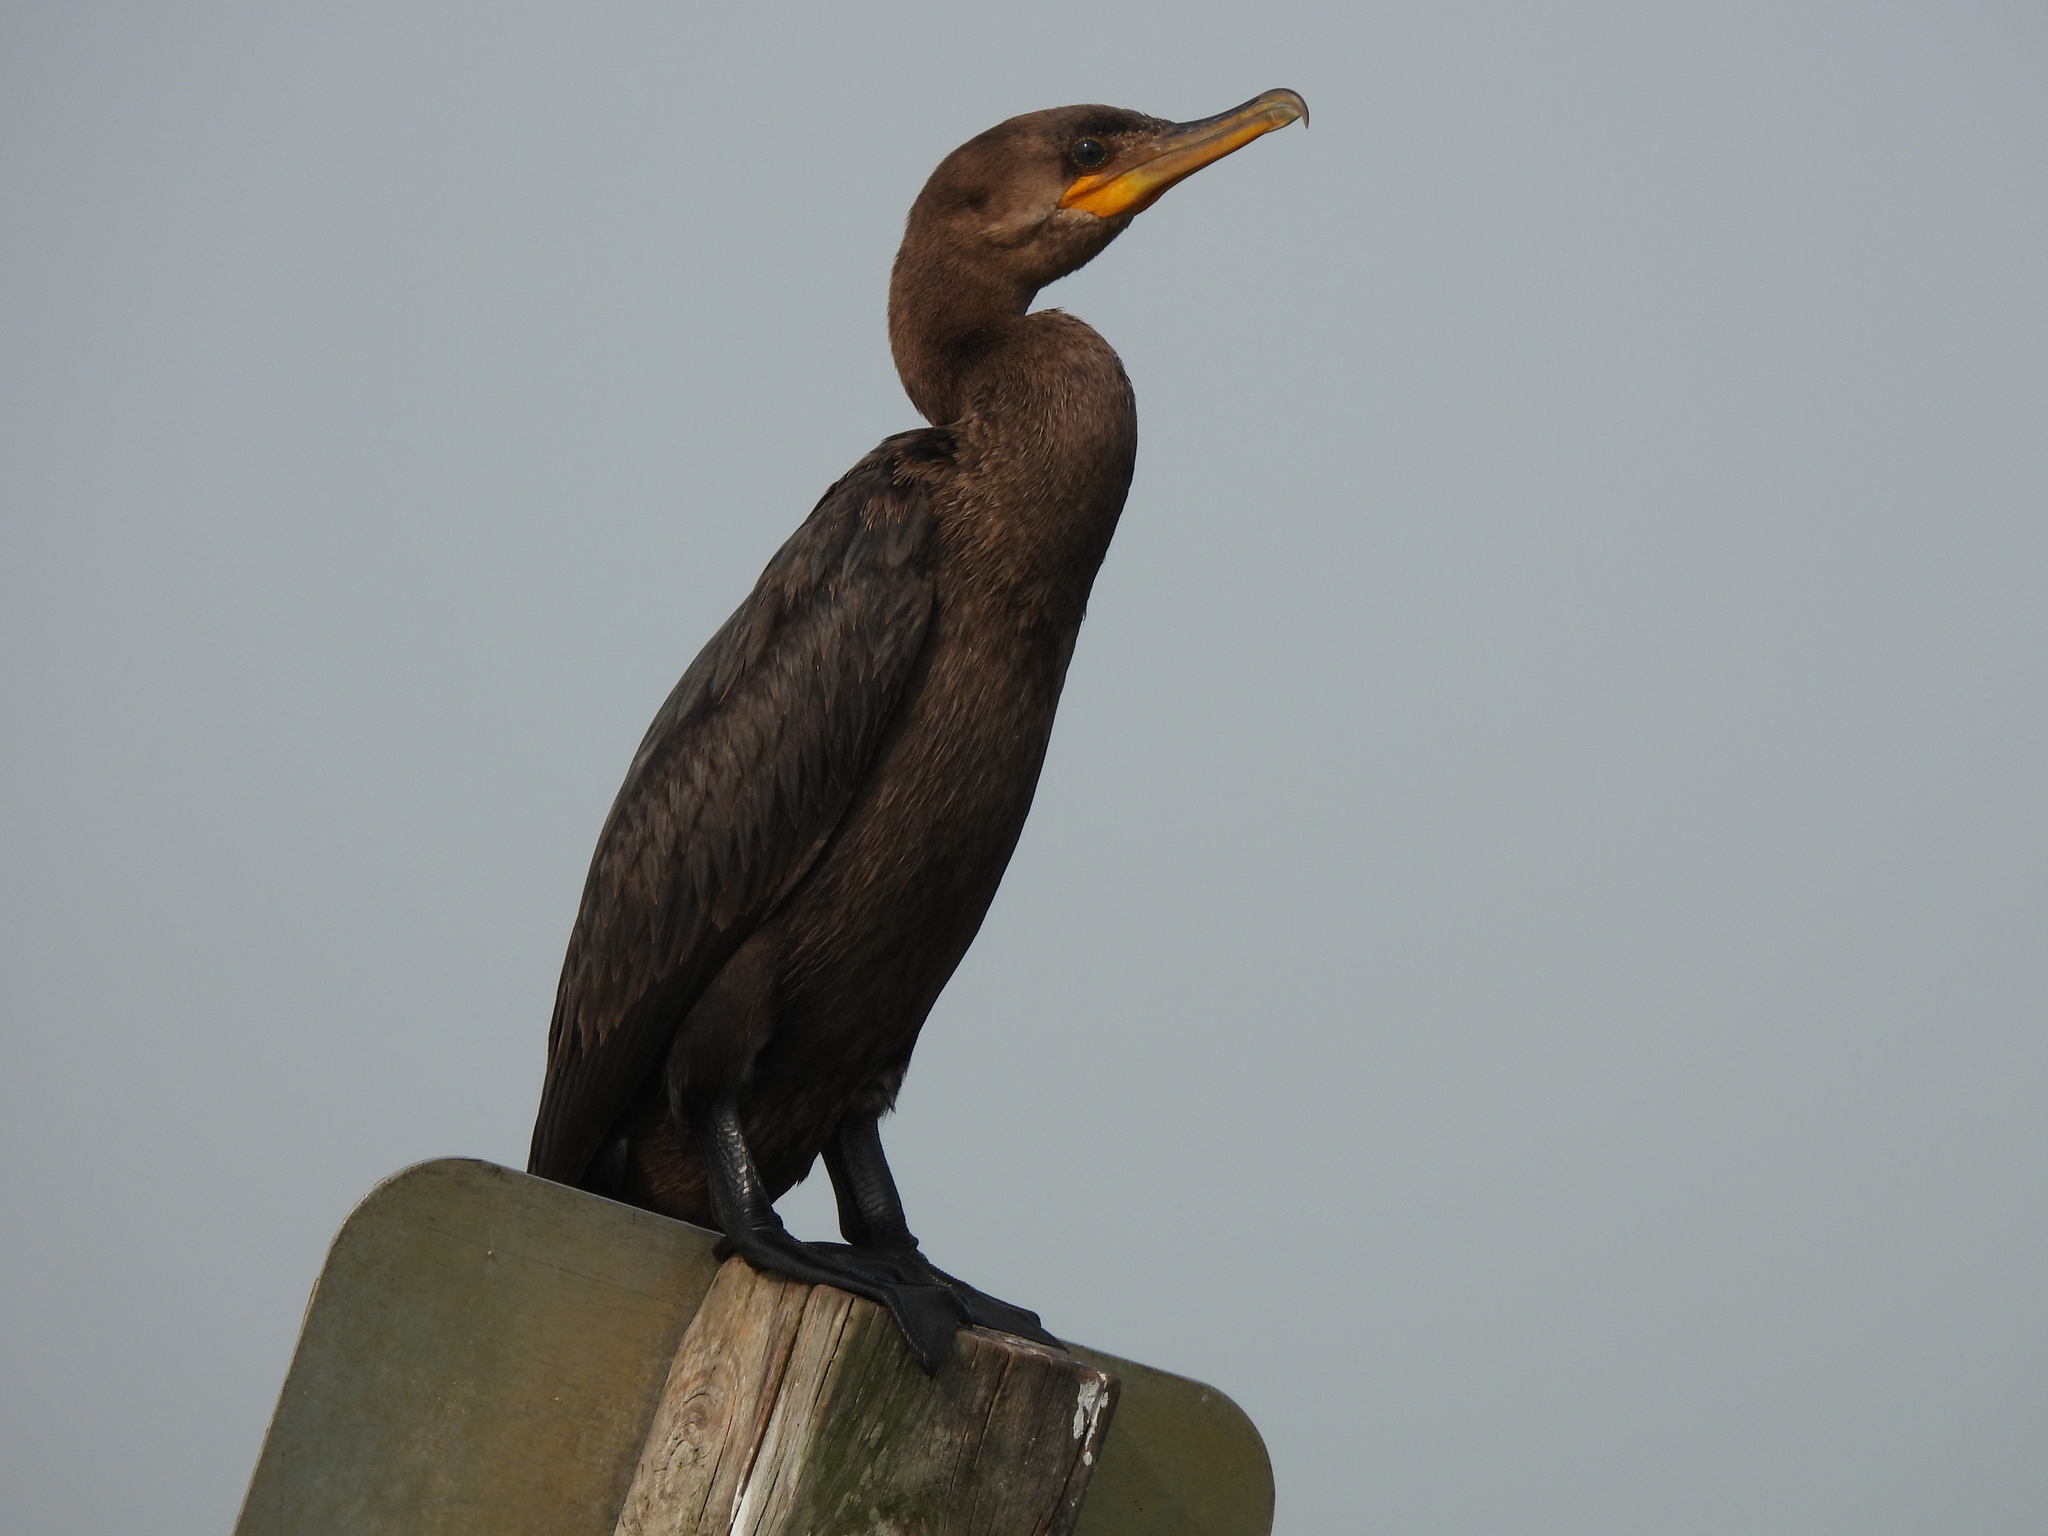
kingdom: Animalia
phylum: Chordata
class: Aves
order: Suliformes
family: Phalacrocoracidae
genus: Phalacrocorax
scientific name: Phalacrocorax brasilianus
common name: Neotropic cormorant
